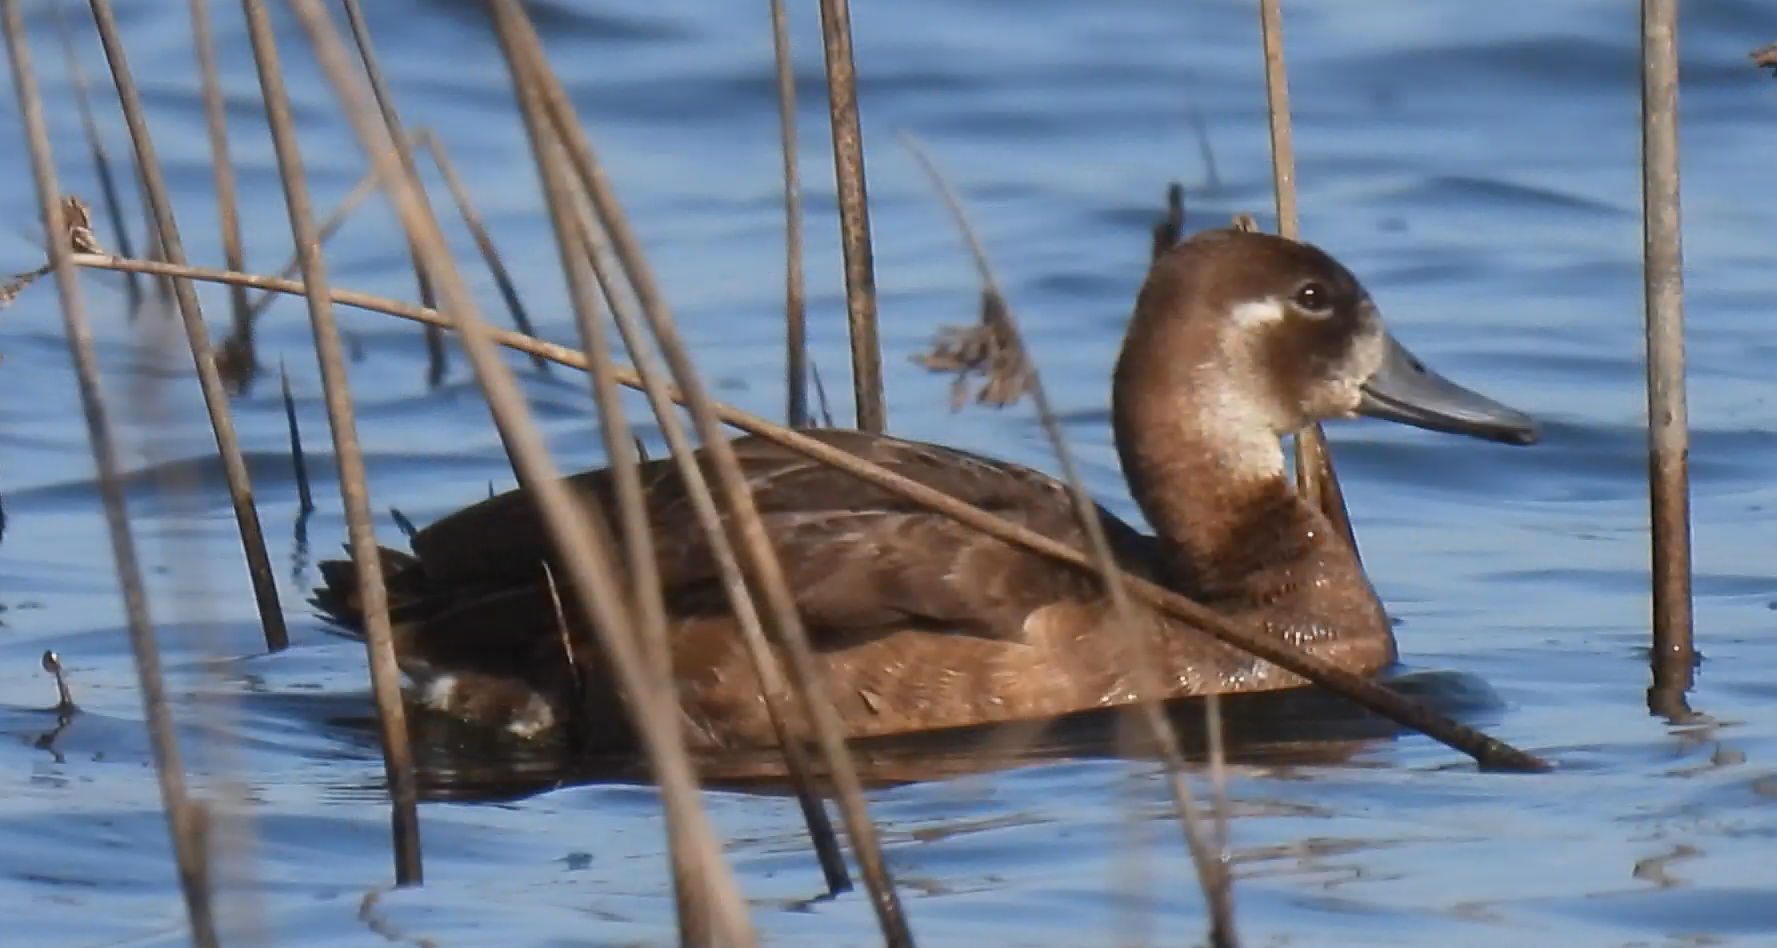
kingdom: Animalia
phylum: Chordata
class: Aves
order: Anseriformes
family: Anatidae
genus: Netta
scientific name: Netta erythrophthalma
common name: Southern pochard
